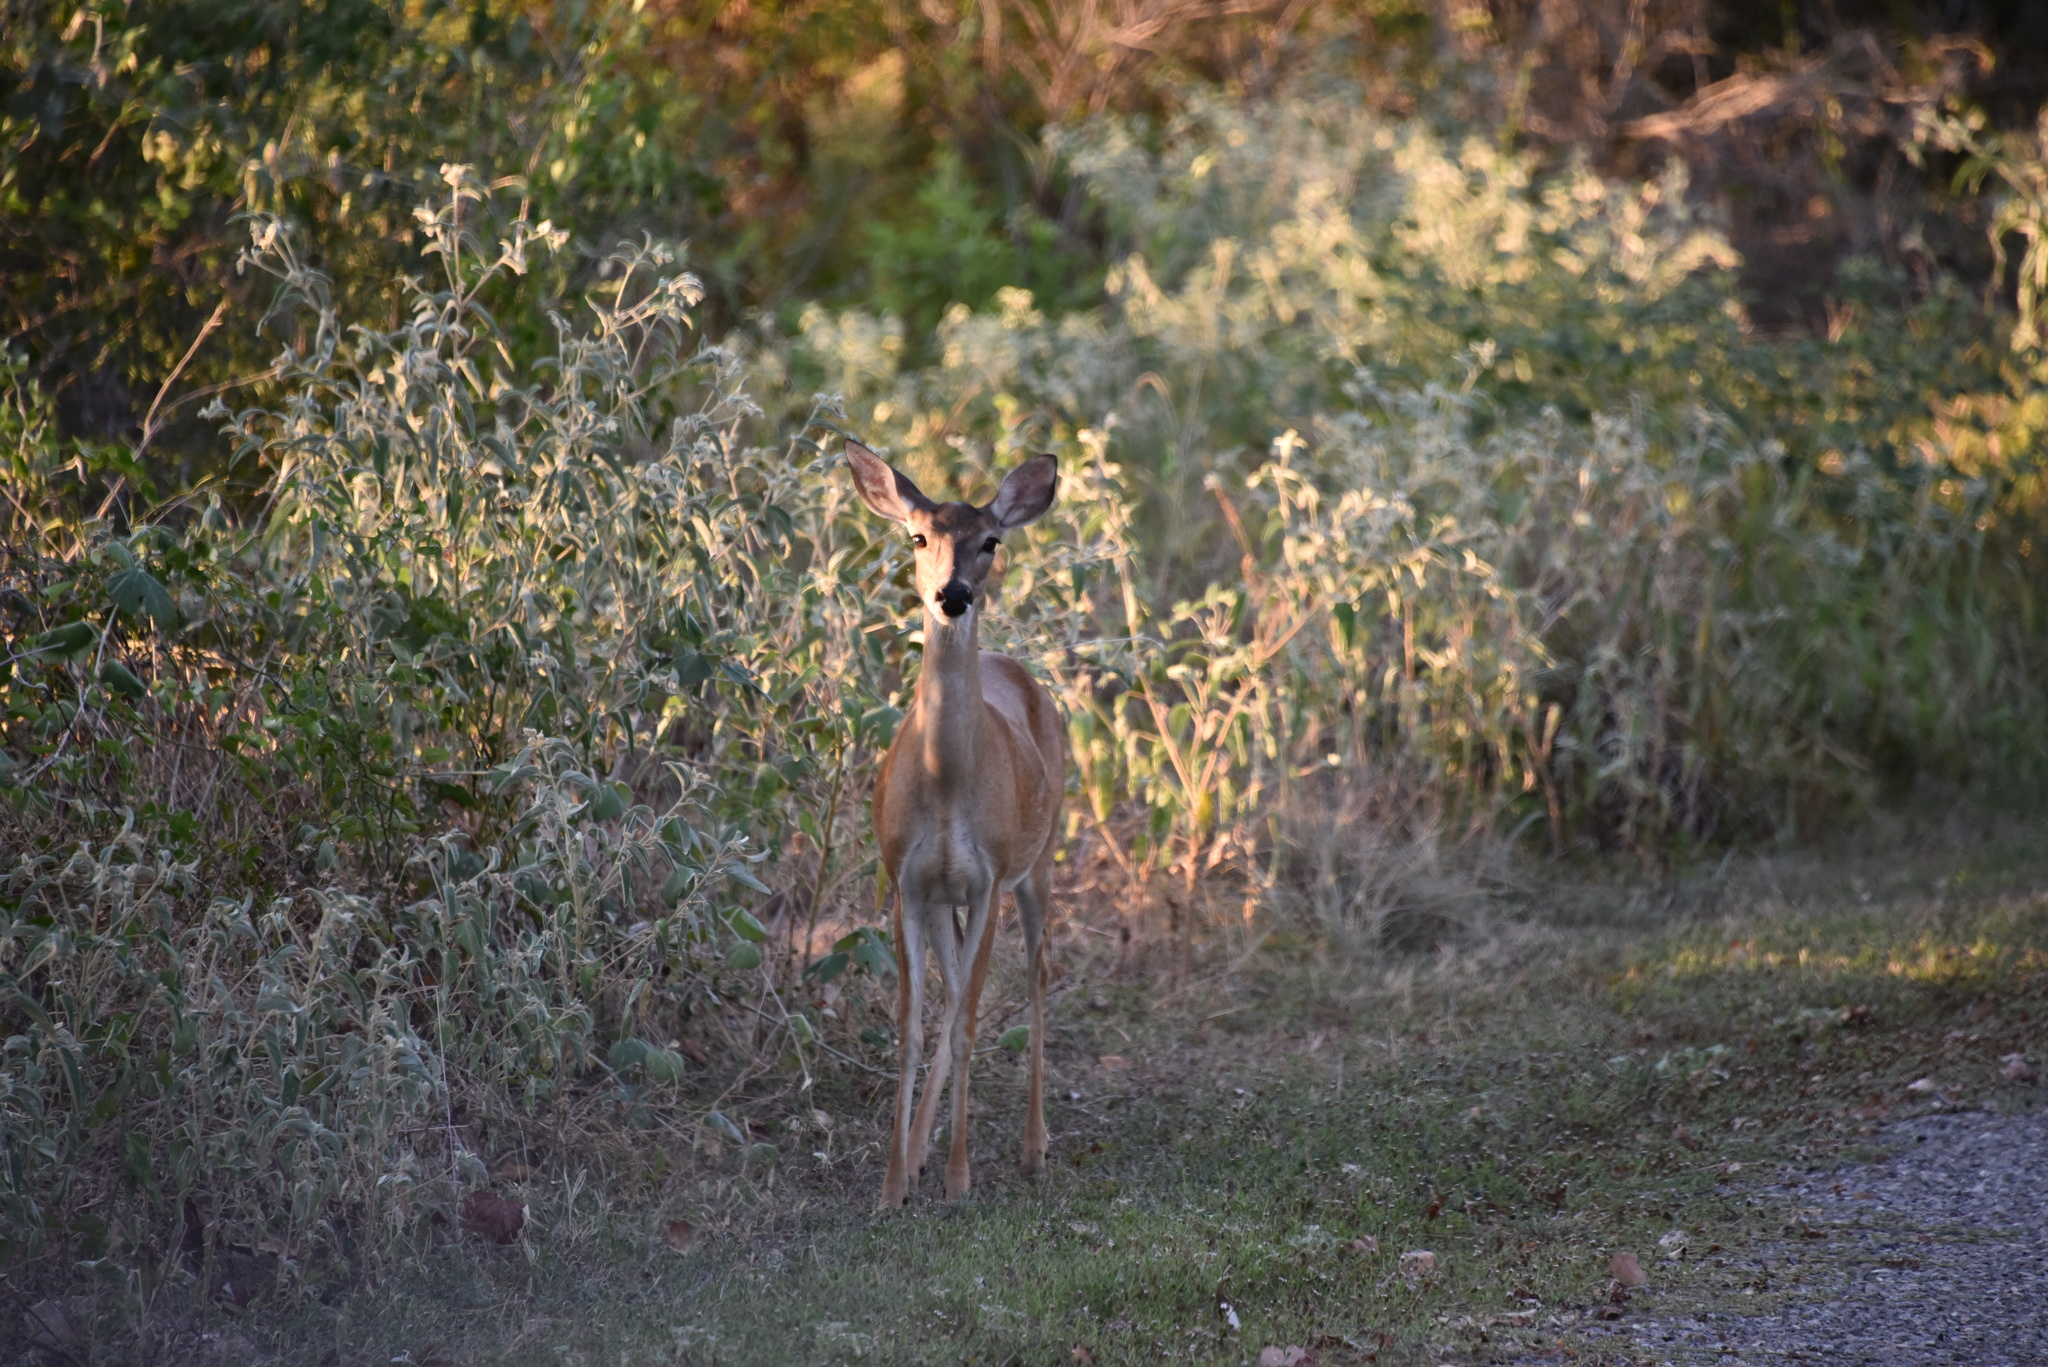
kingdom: Animalia
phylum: Chordata
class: Mammalia
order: Artiodactyla
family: Cervidae
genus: Odocoileus
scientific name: Odocoileus virginianus
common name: White-tailed deer
